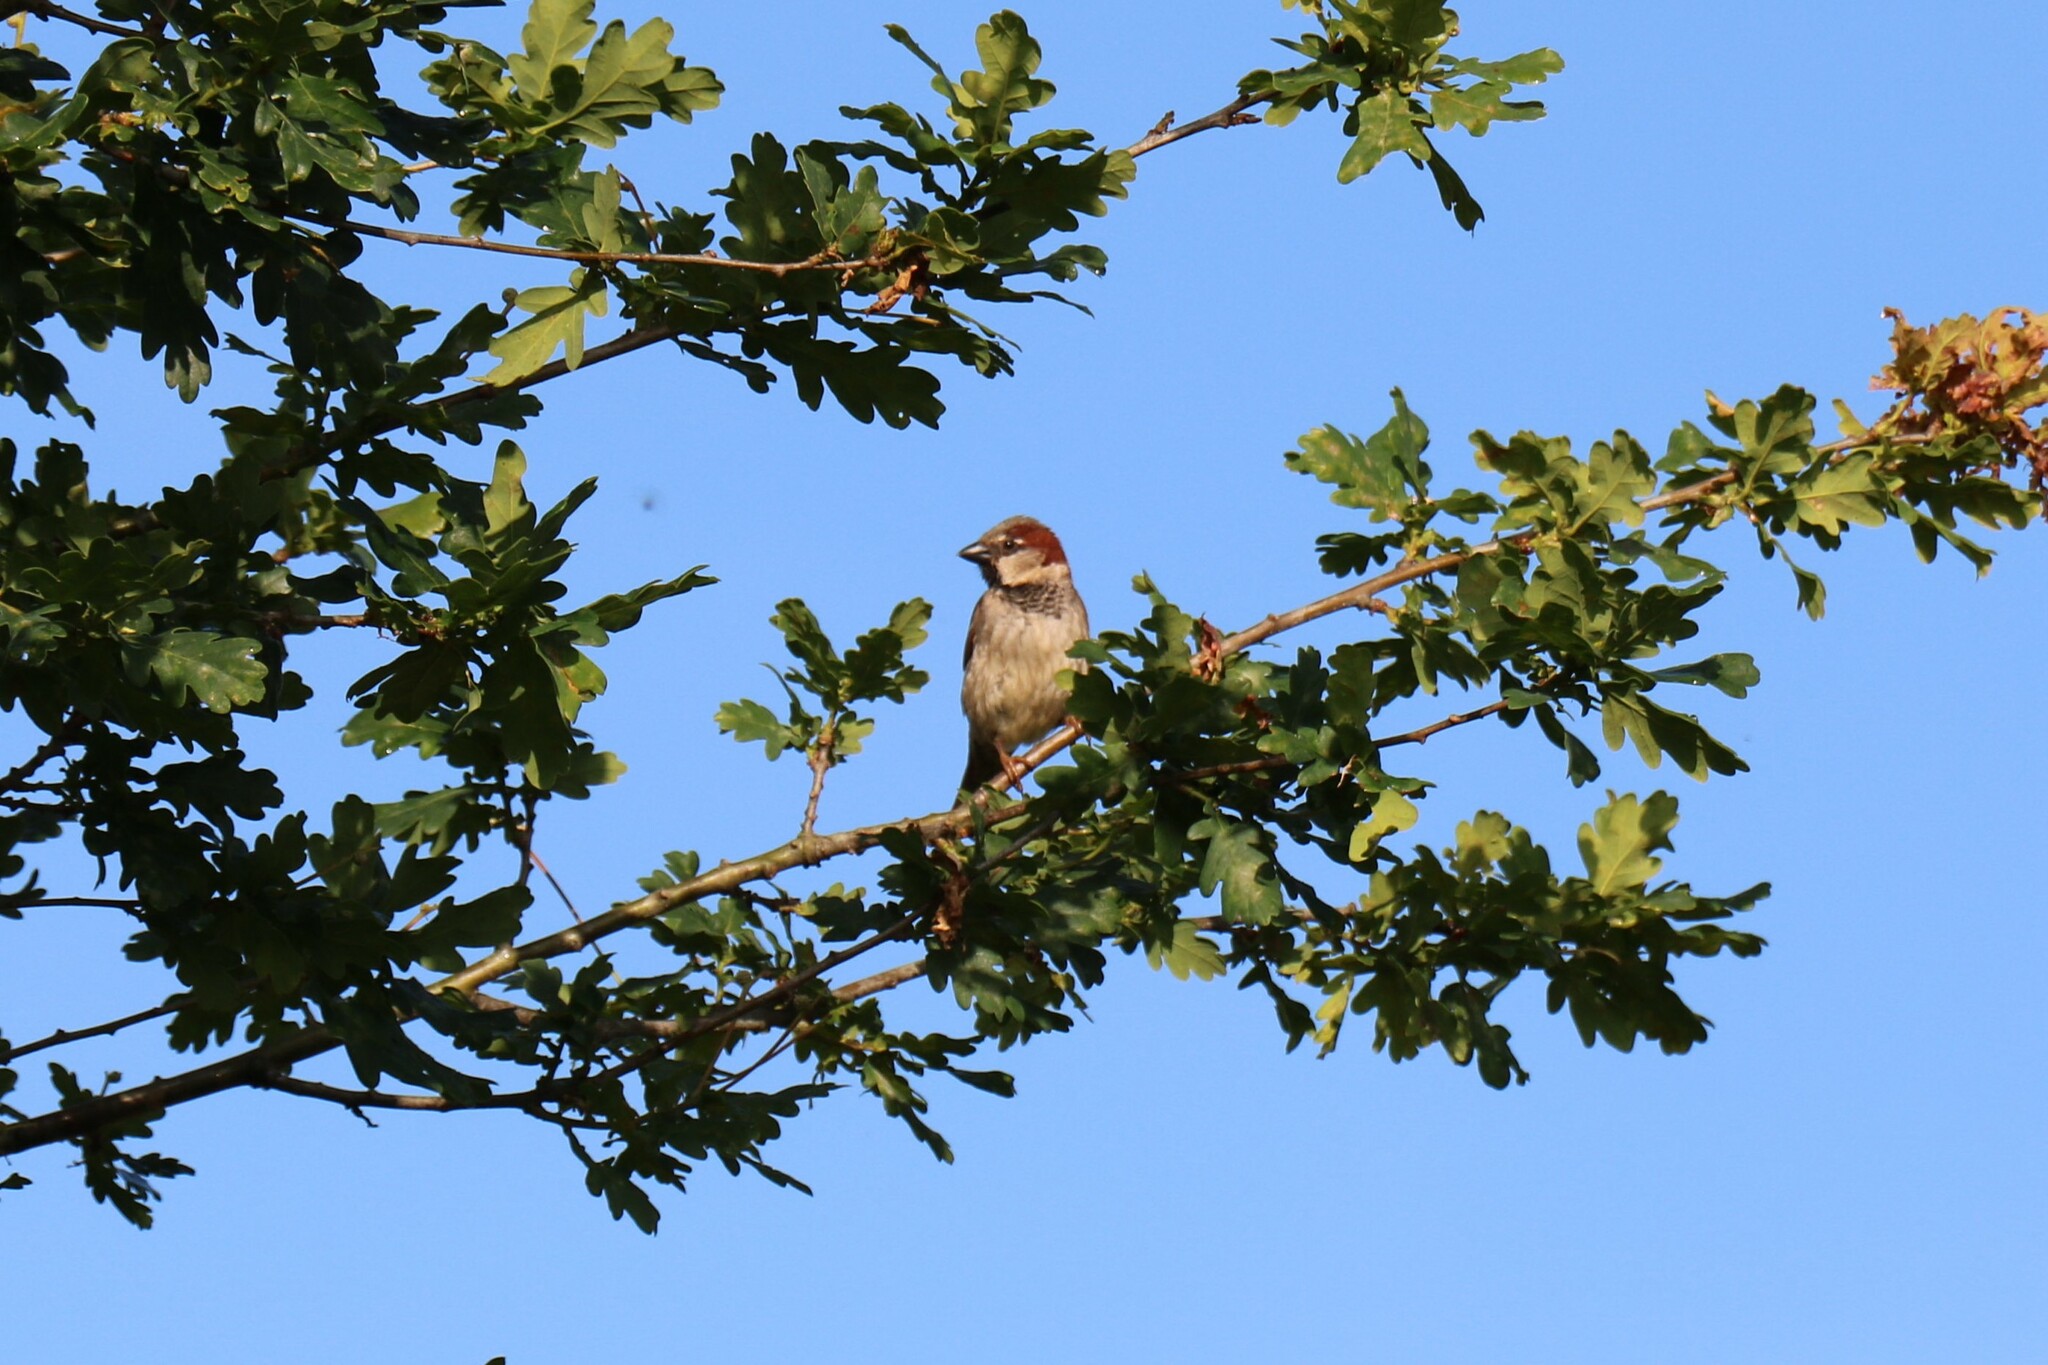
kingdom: Animalia
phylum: Chordata
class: Aves
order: Passeriformes
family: Passeridae
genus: Passer
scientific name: Passer domesticus
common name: House sparrow
